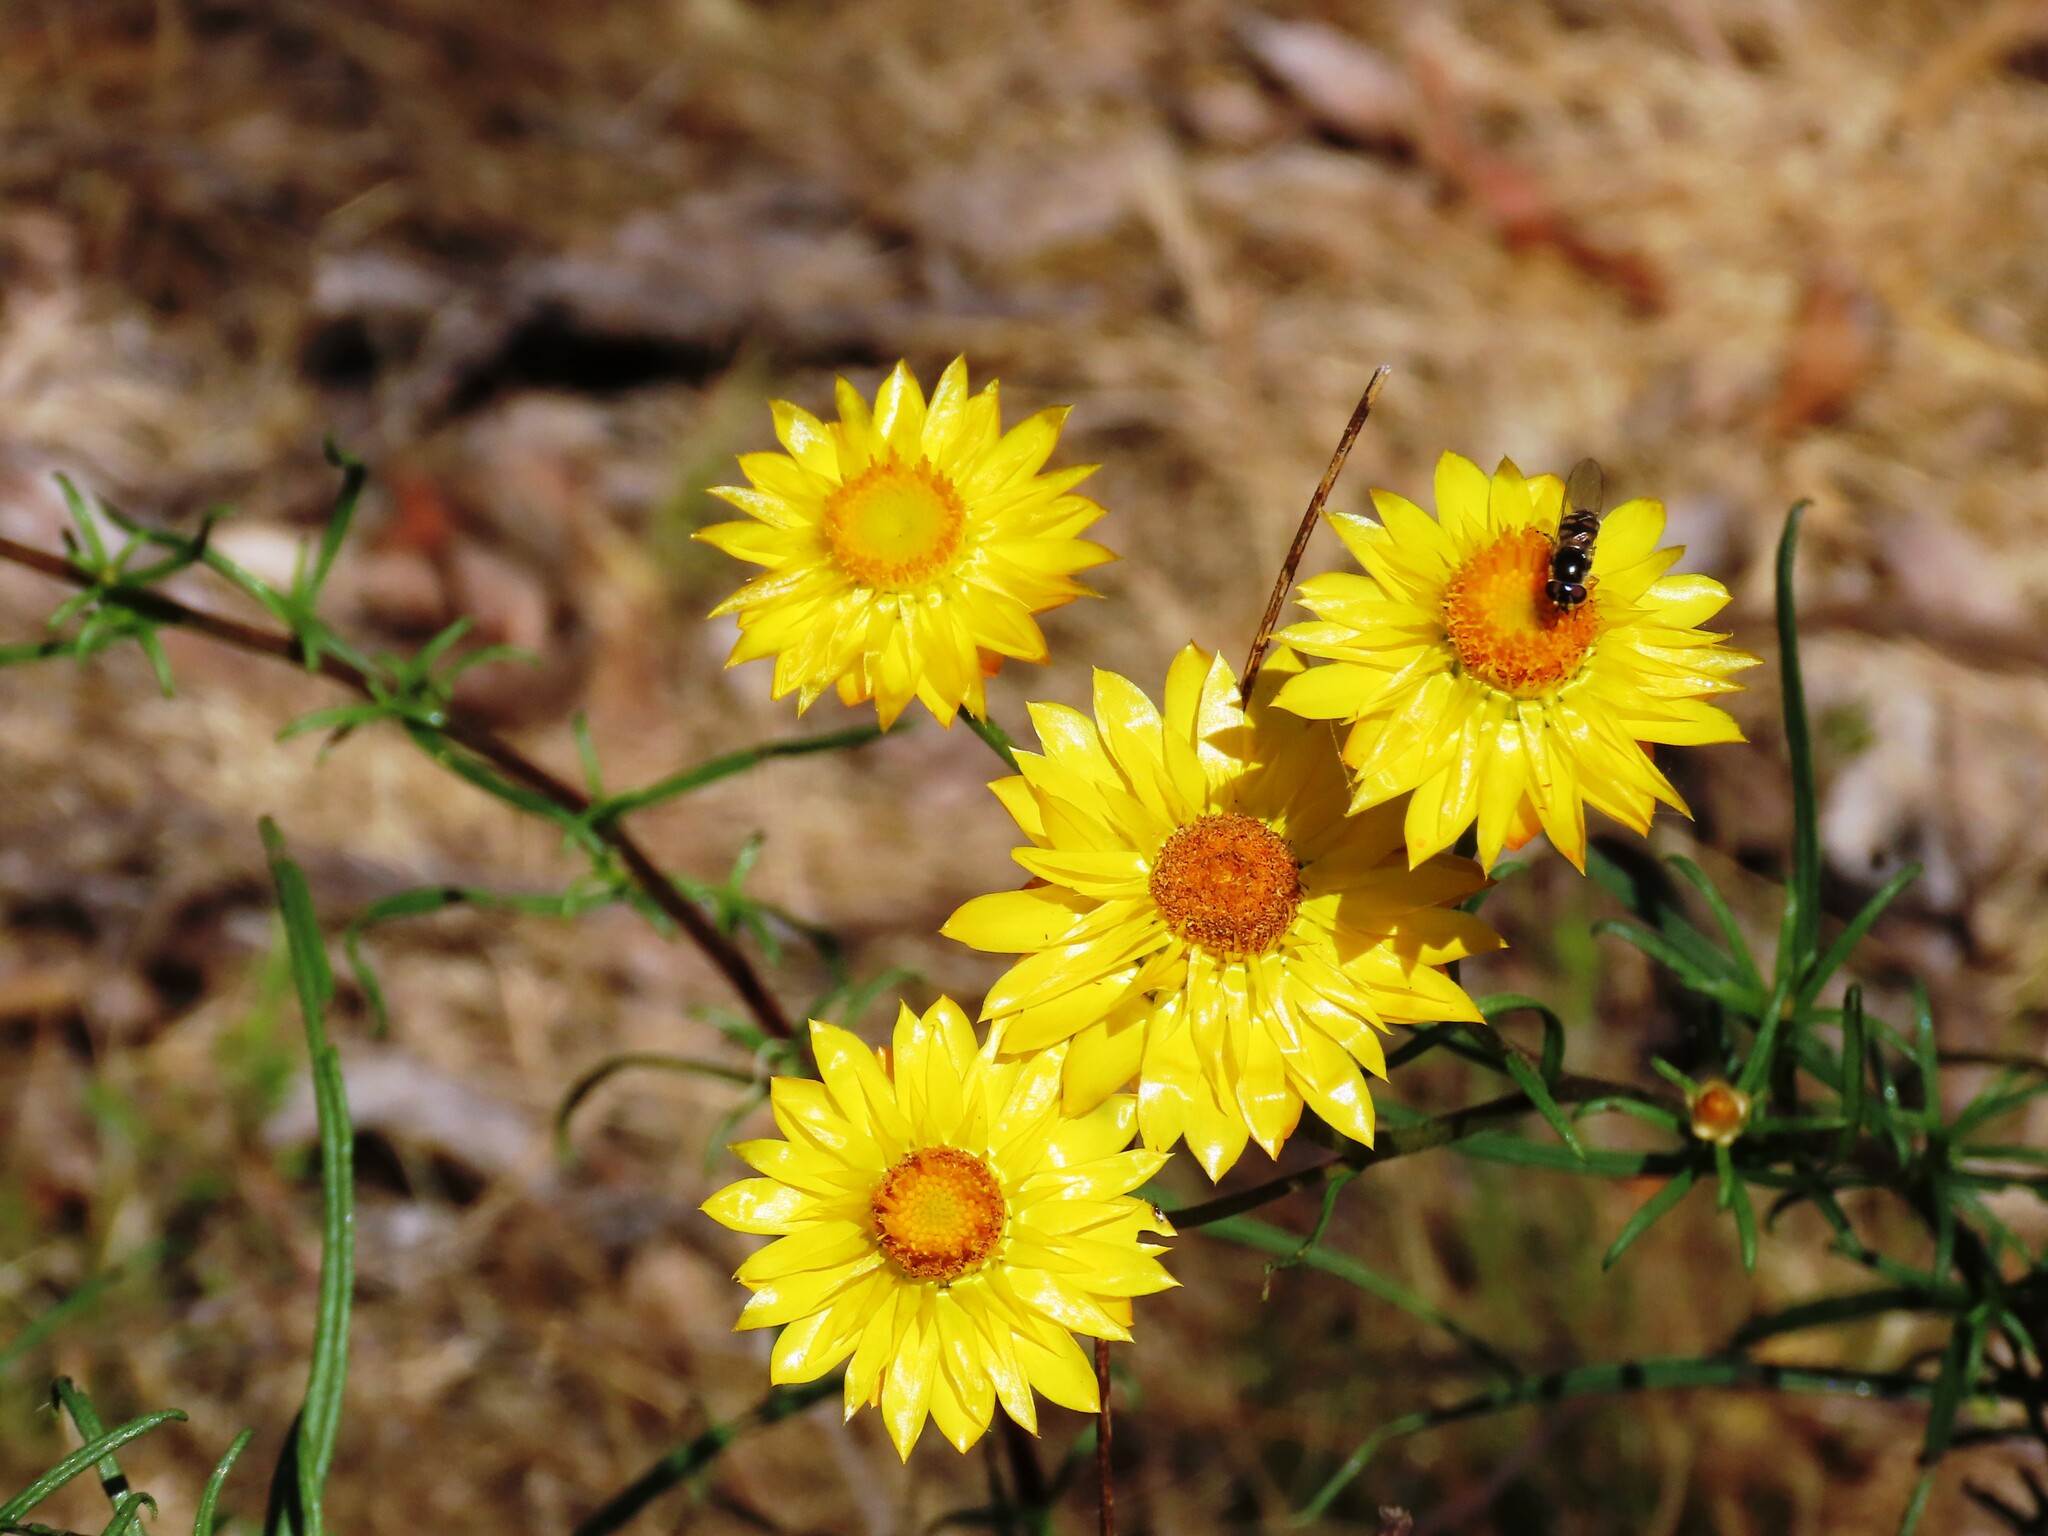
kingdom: Plantae
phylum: Tracheophyta
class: Magnoliopsida
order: Asterales
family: Asteraceae
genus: Xerochrysum
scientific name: Xerochrysum viscosum
